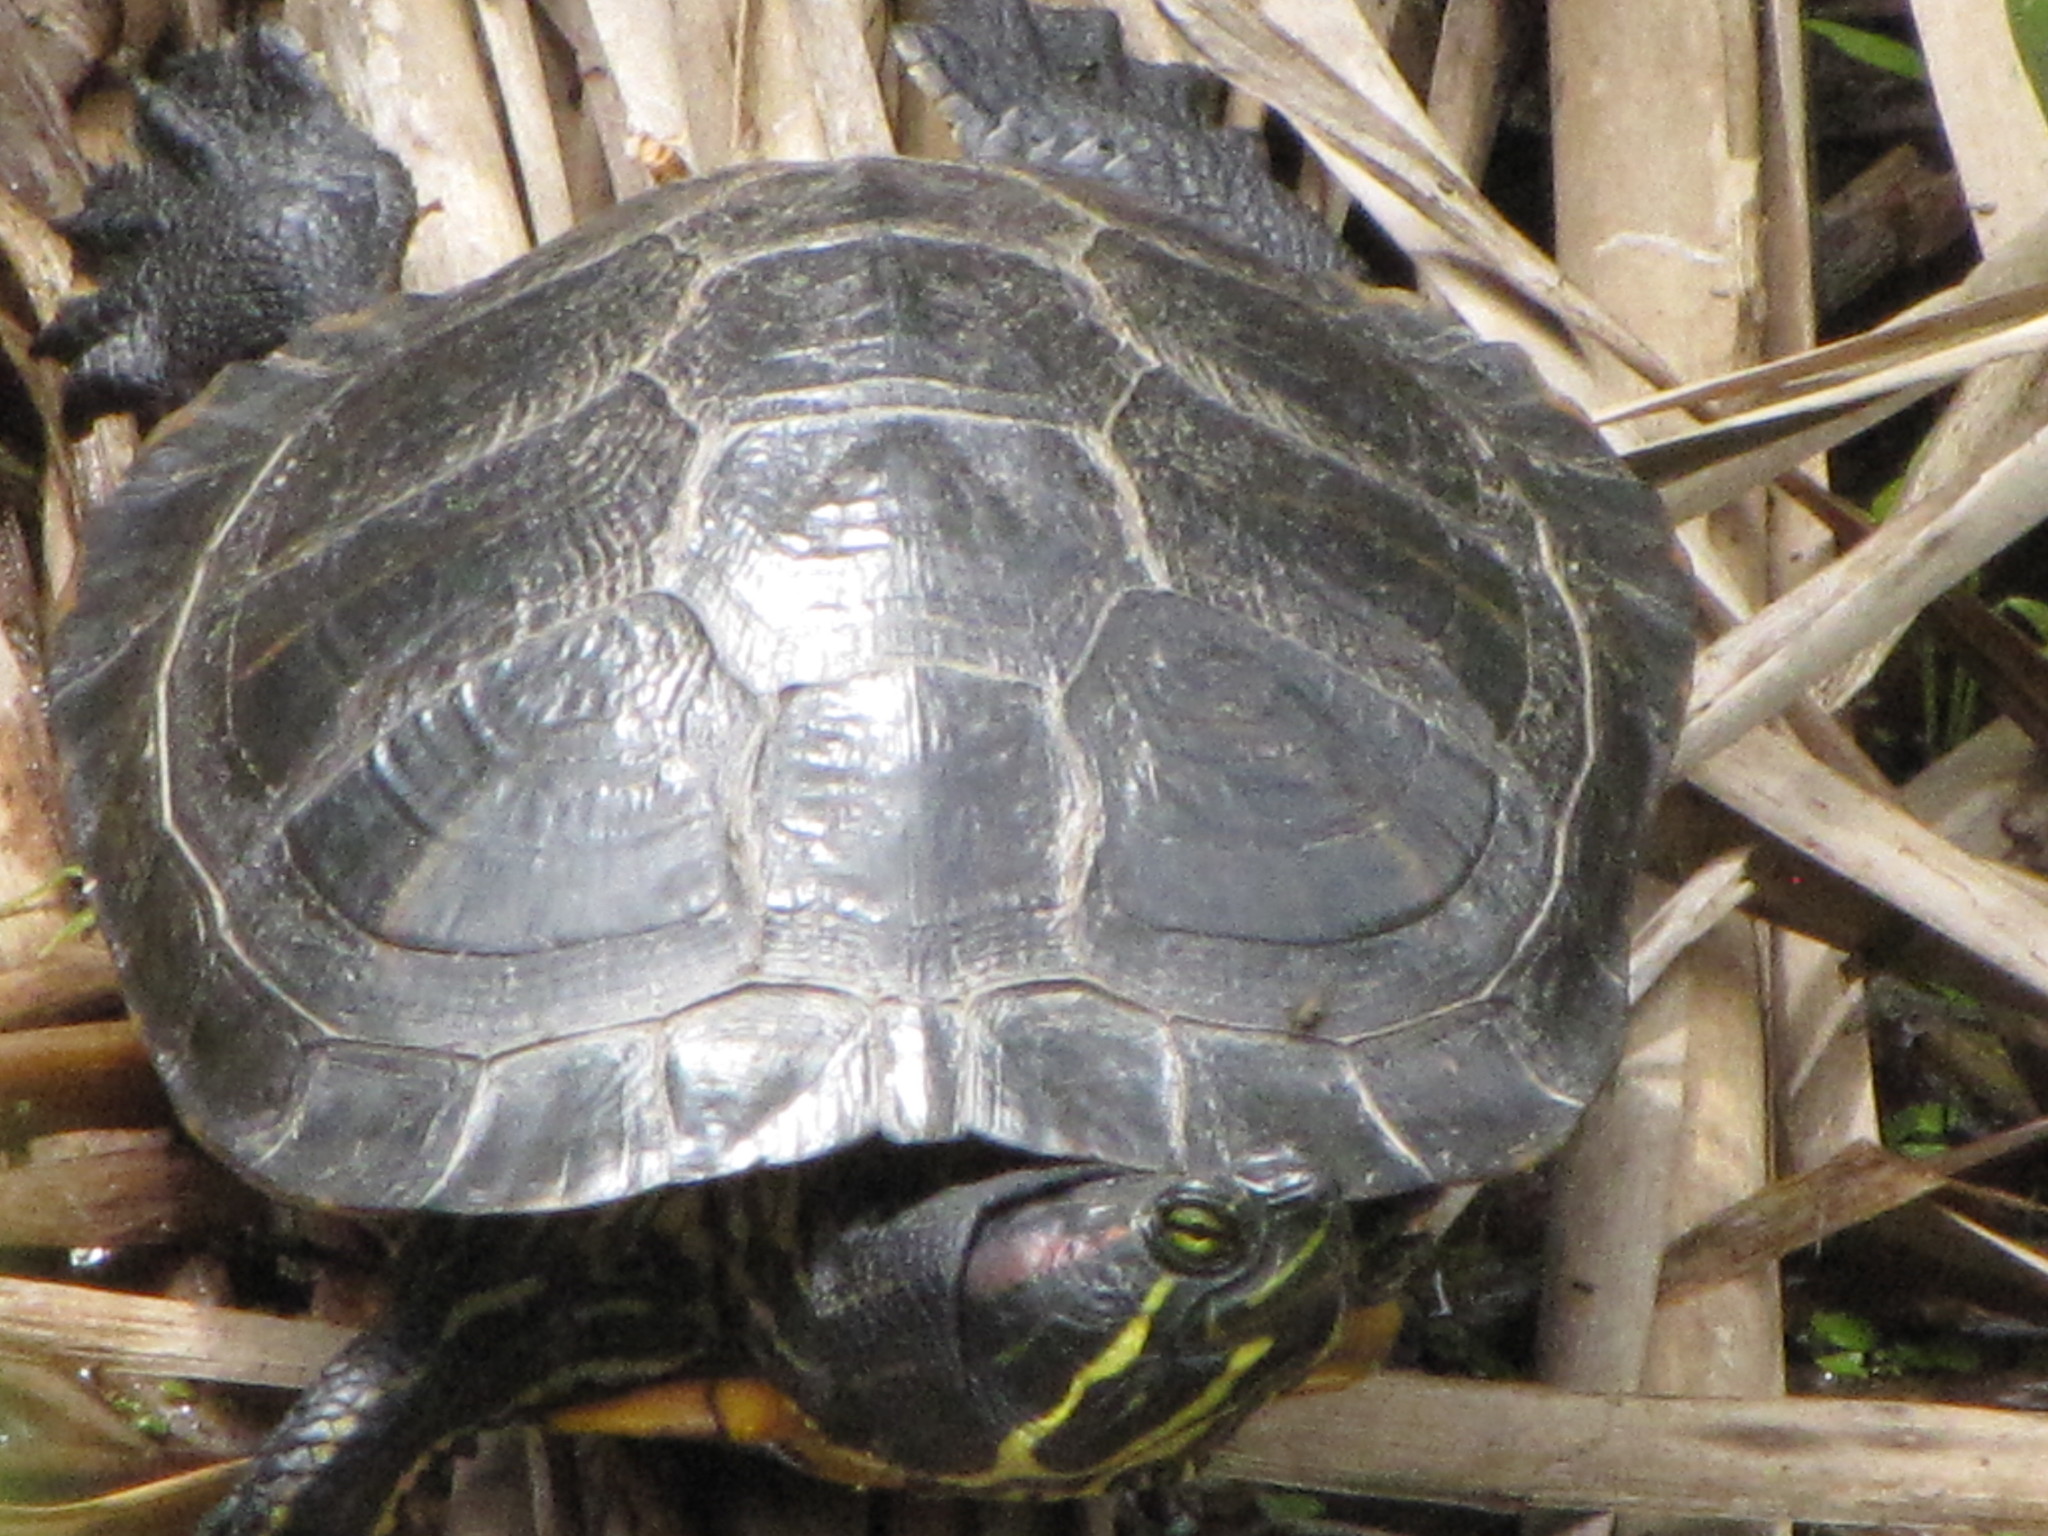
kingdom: Animalia
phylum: Chordata
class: Testudines
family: Emydidae
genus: Trachemys
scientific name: Trachemys scripta
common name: Slider
